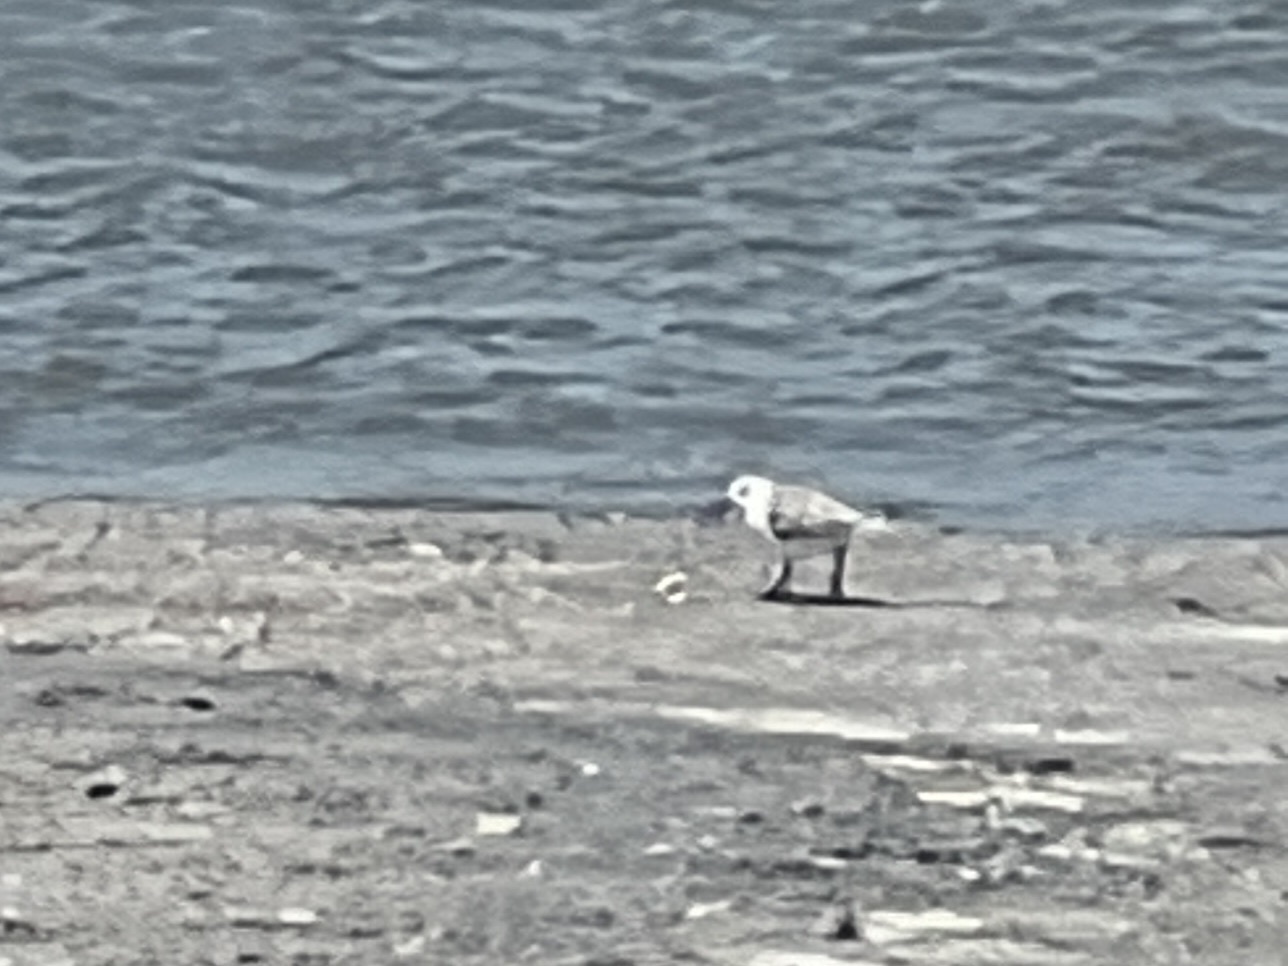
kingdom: Animalia
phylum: Chordata
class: Aves
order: Charadriiformes
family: Scolopacidae
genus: Calidris
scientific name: Calidris alba
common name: Sanderling
